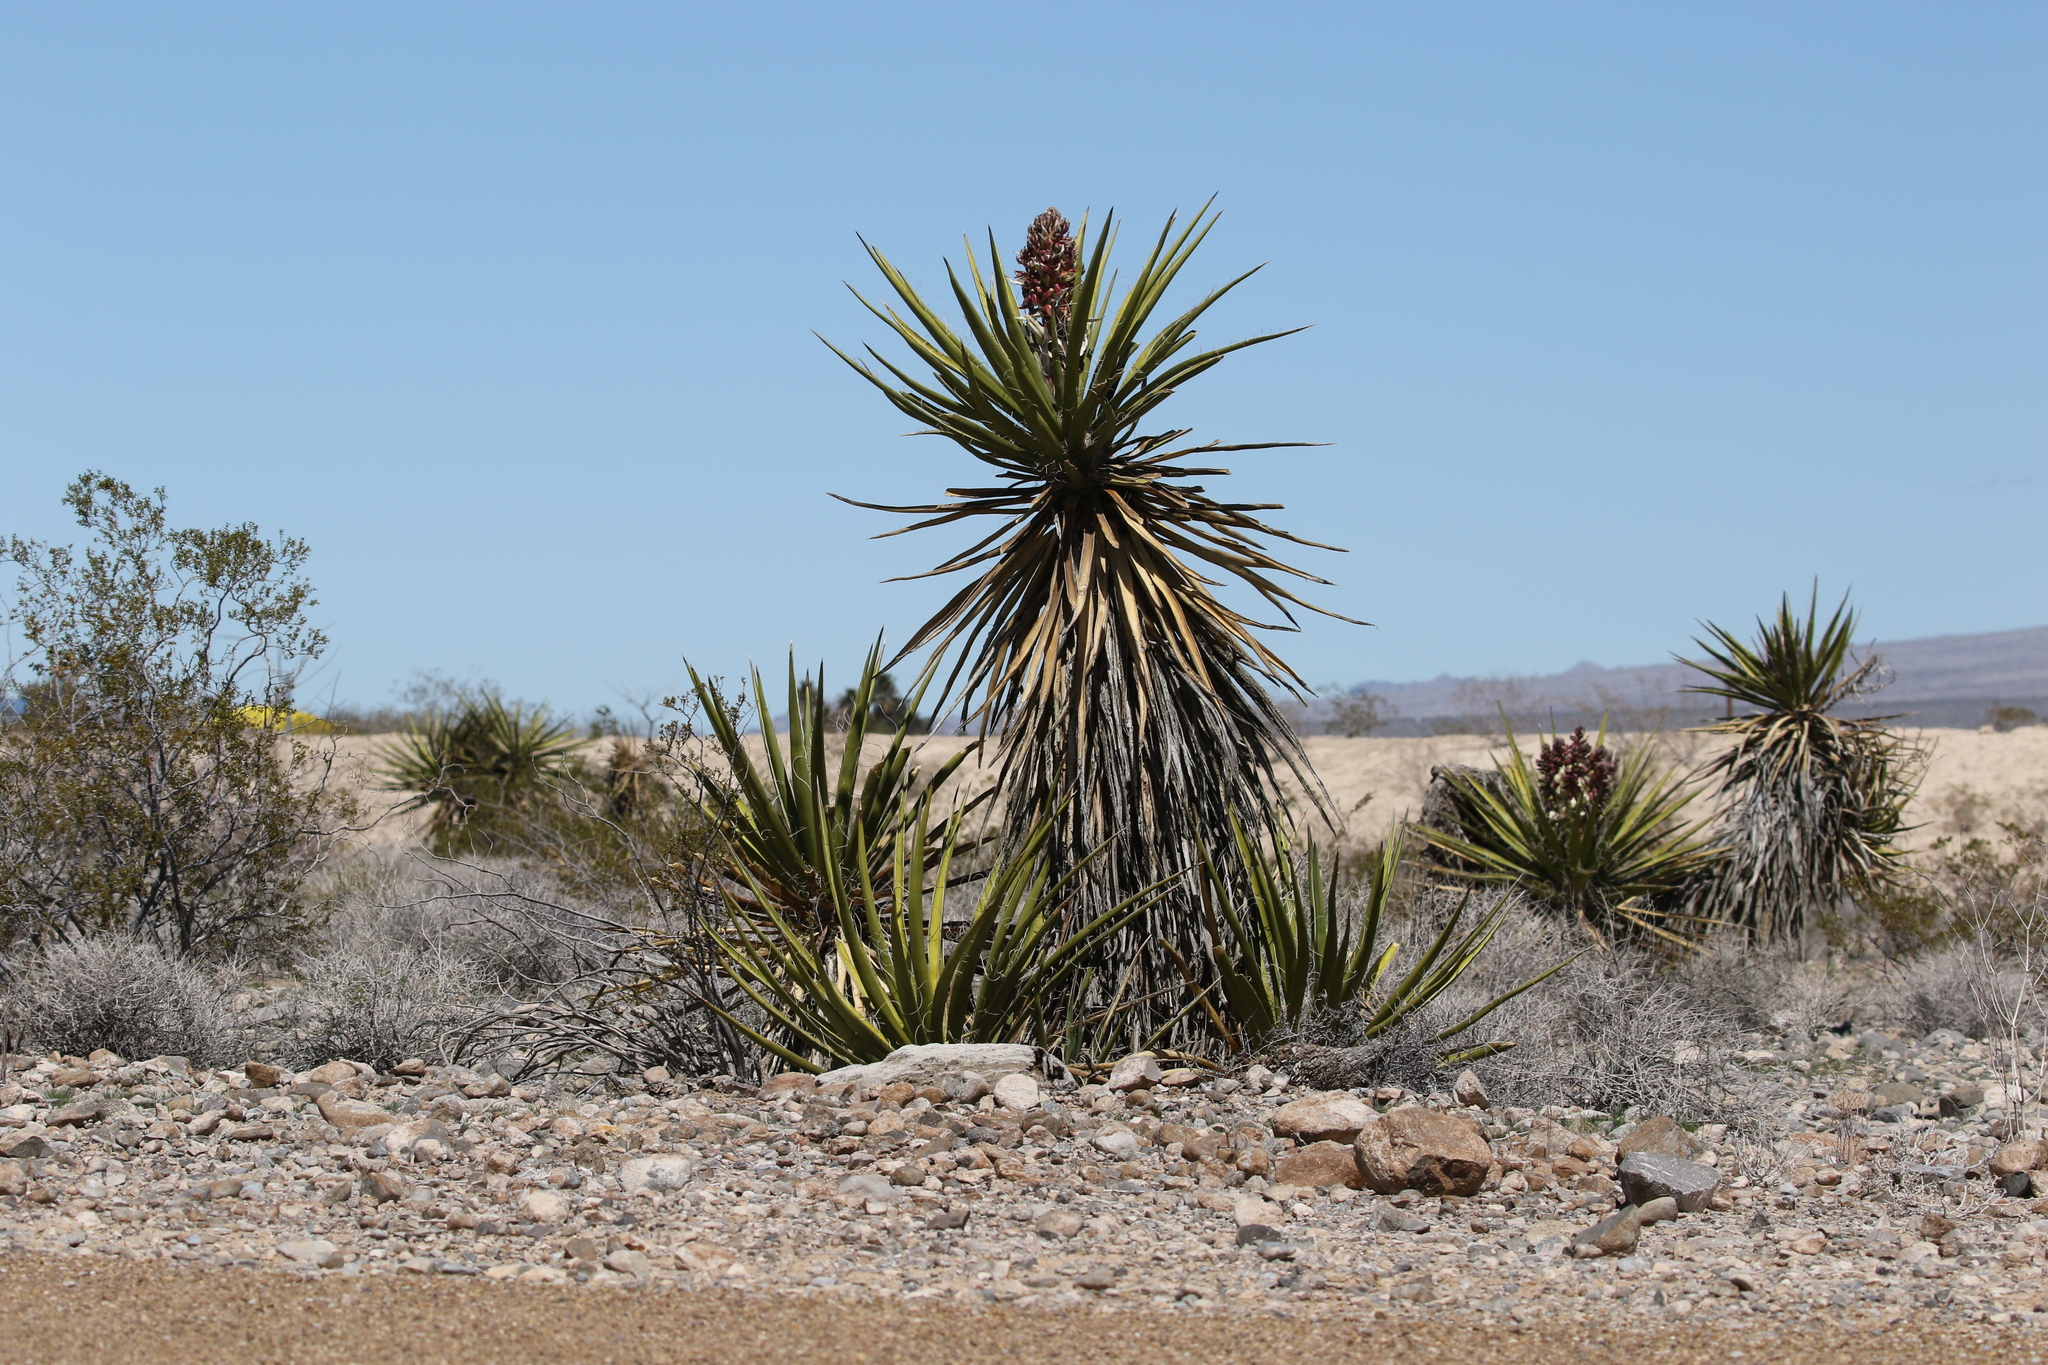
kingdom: Plantae
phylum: Tracheophyta
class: Liliopsida
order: Asparagales
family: Asparagaceae
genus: Yucca
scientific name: Yucca schidigera
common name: Mojave yucca
